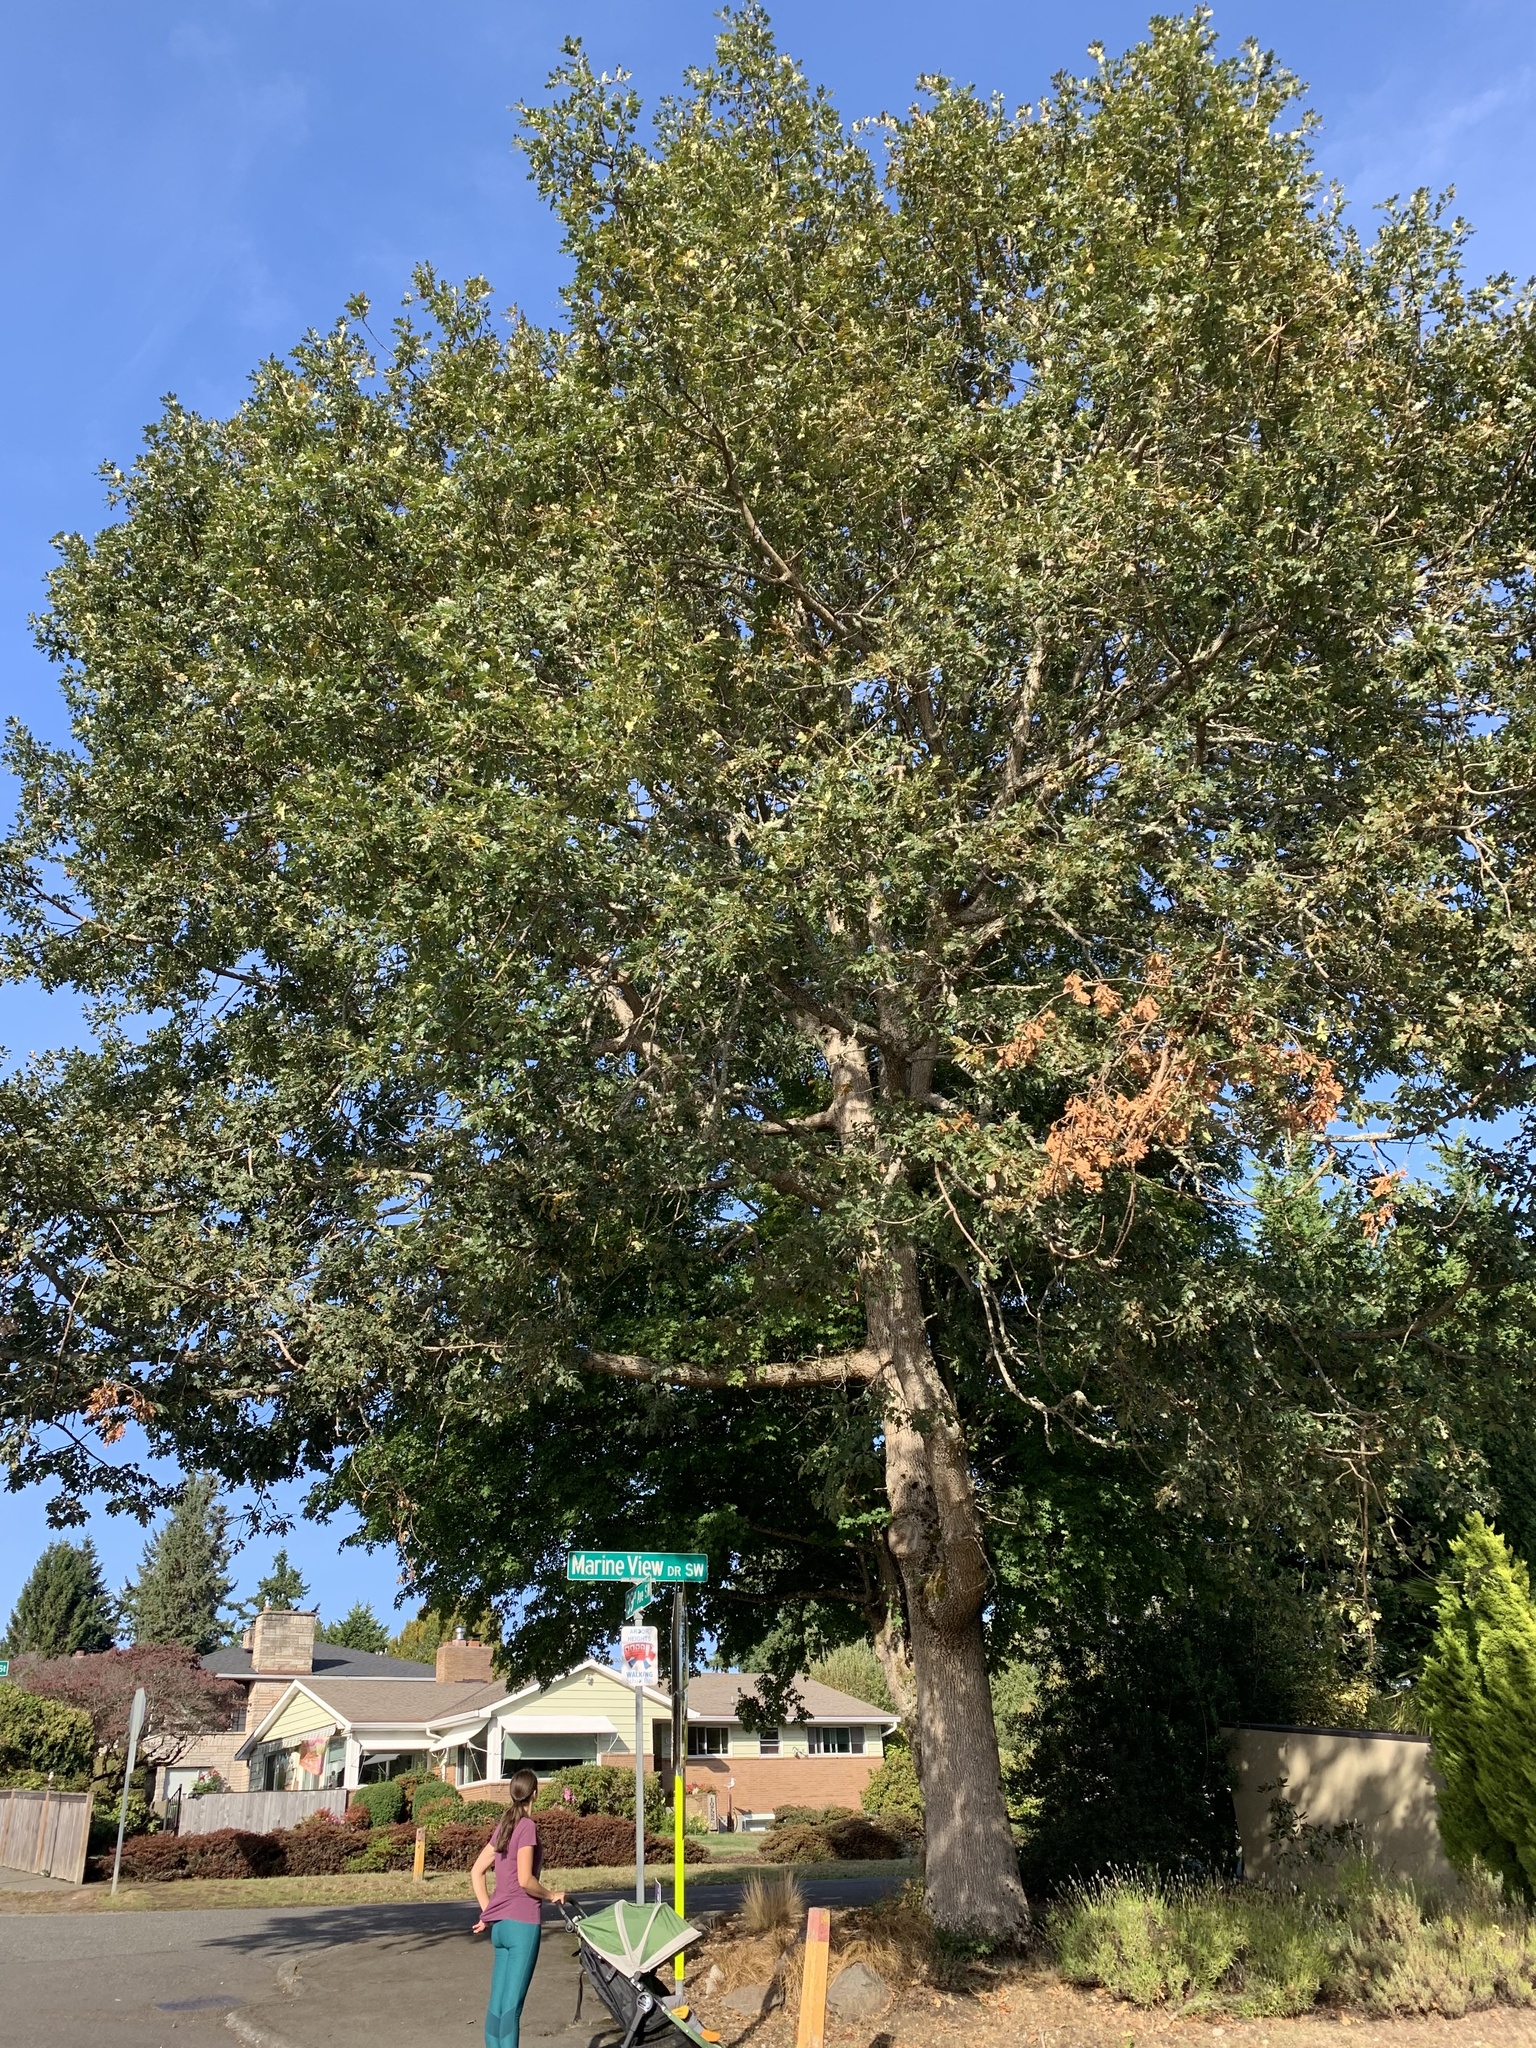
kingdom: Plantae
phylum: Tracheophyta
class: Magnoliopsida
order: Fagales
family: Fagaceae
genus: Quercus
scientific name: Quercus garryana
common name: Garry oak
